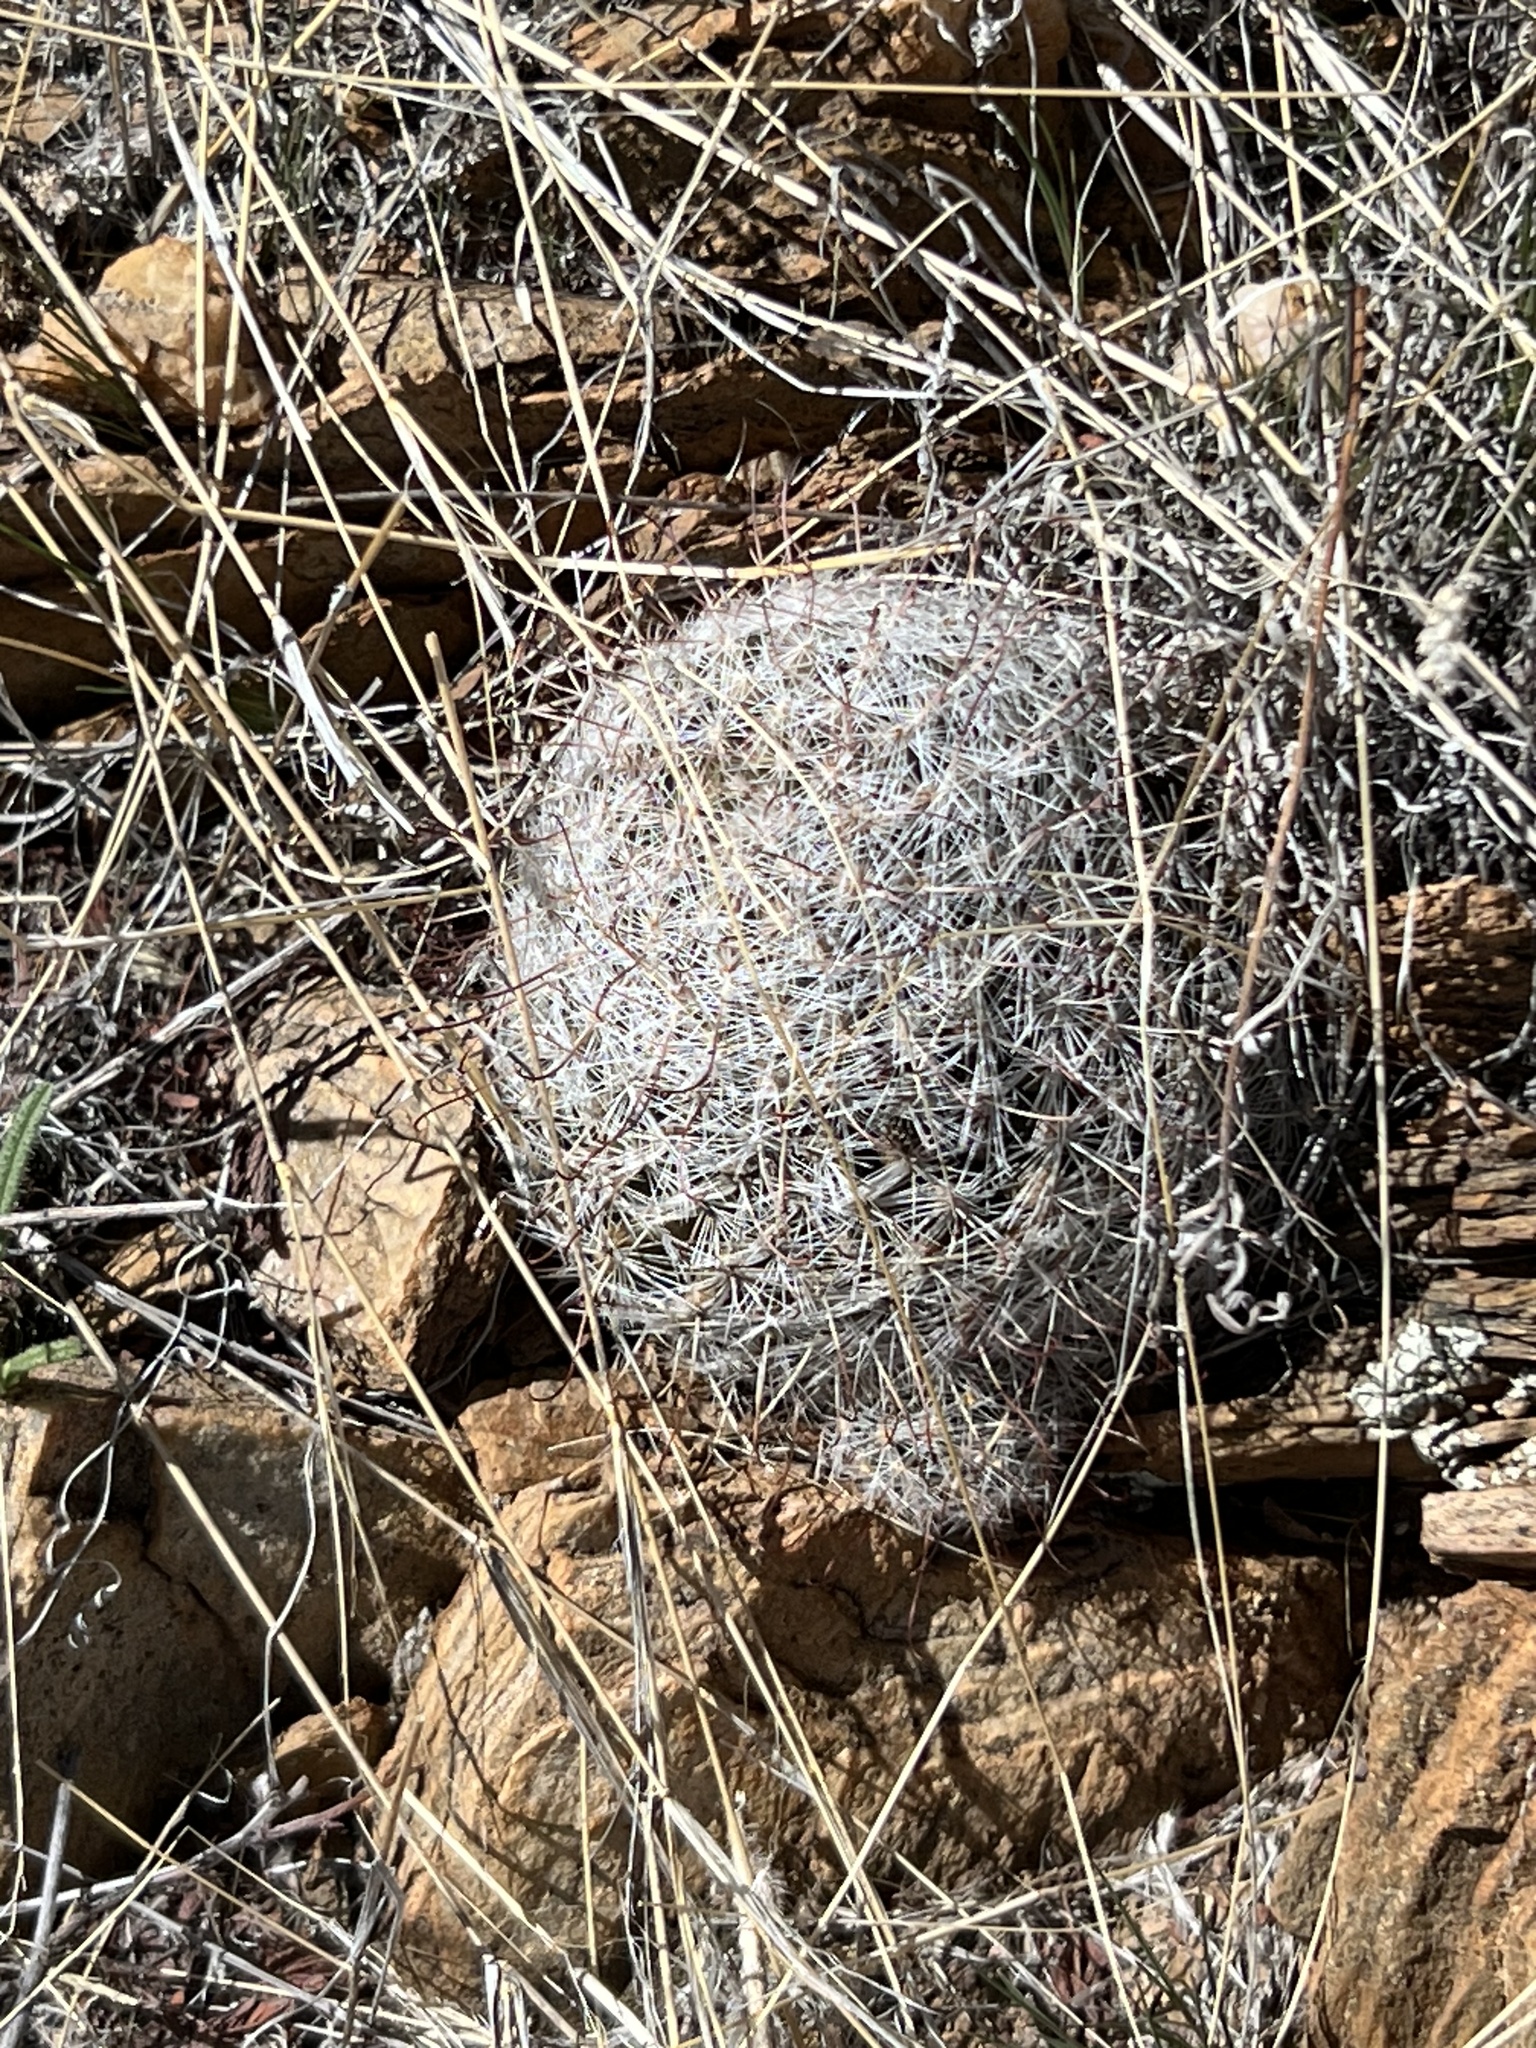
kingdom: Plantae
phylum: Tracheophyta
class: Magnoliopsida
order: Caryophyllales
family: Cactaceae
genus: Cochemiea
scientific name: Cochemiea grahamii
